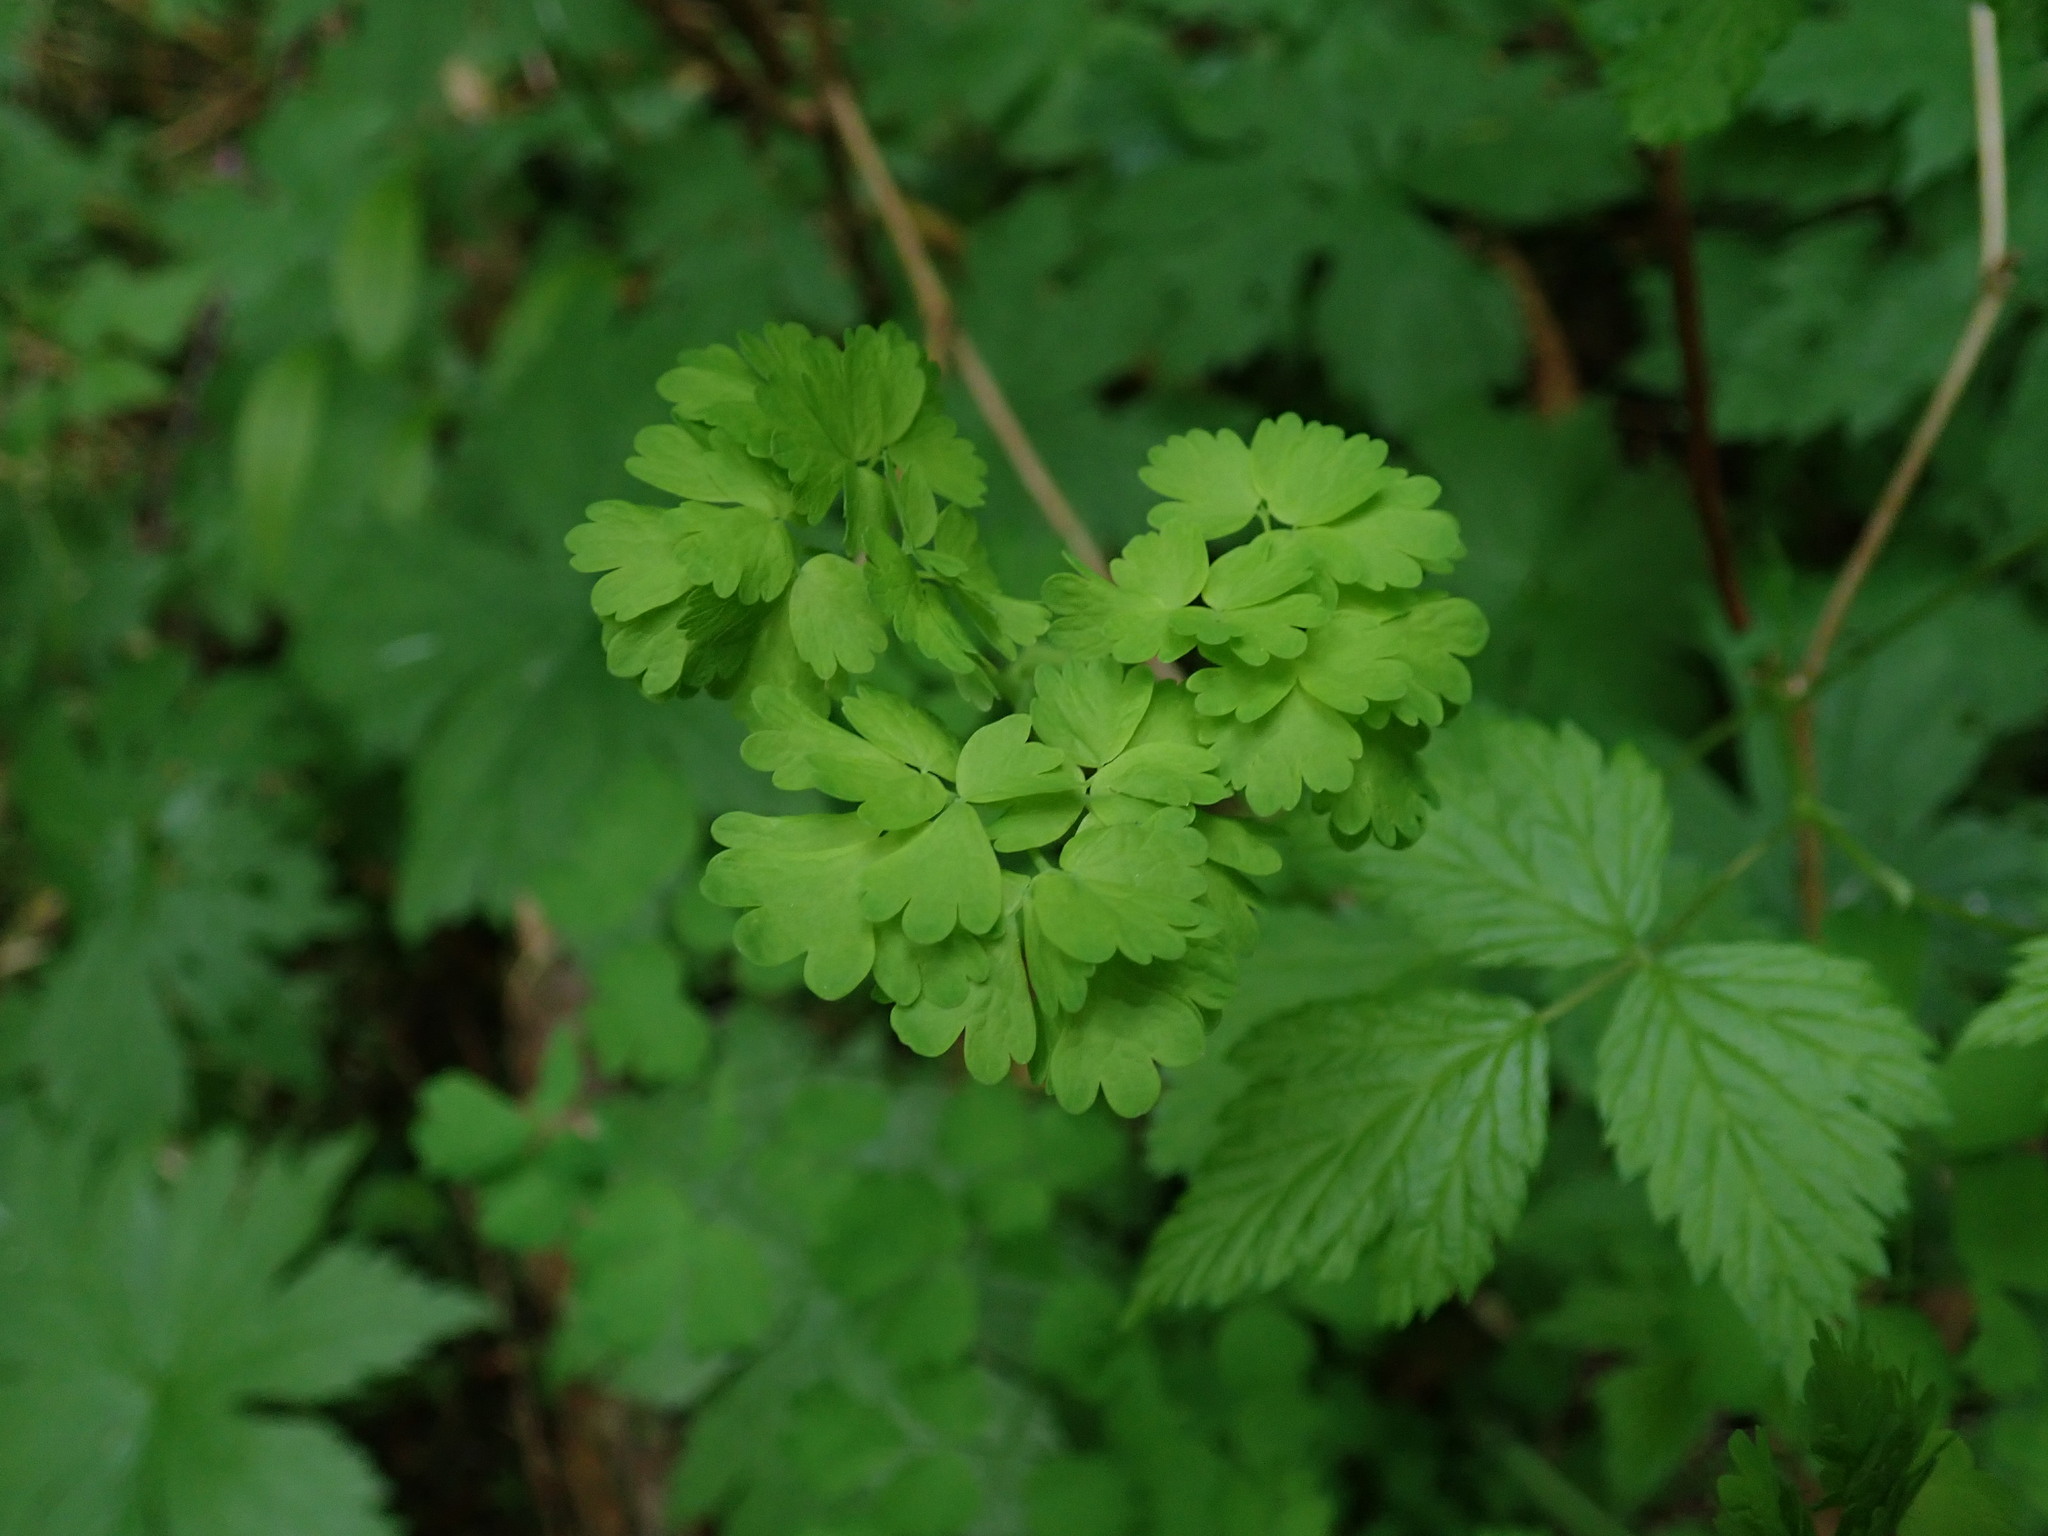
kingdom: Plantae
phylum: Tracheophyta
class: Magnoliopsida
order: Ranunculales
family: Ranunculaceae
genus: Thalictrum
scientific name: Thalictrum occidentale
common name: Western meadow-rue
